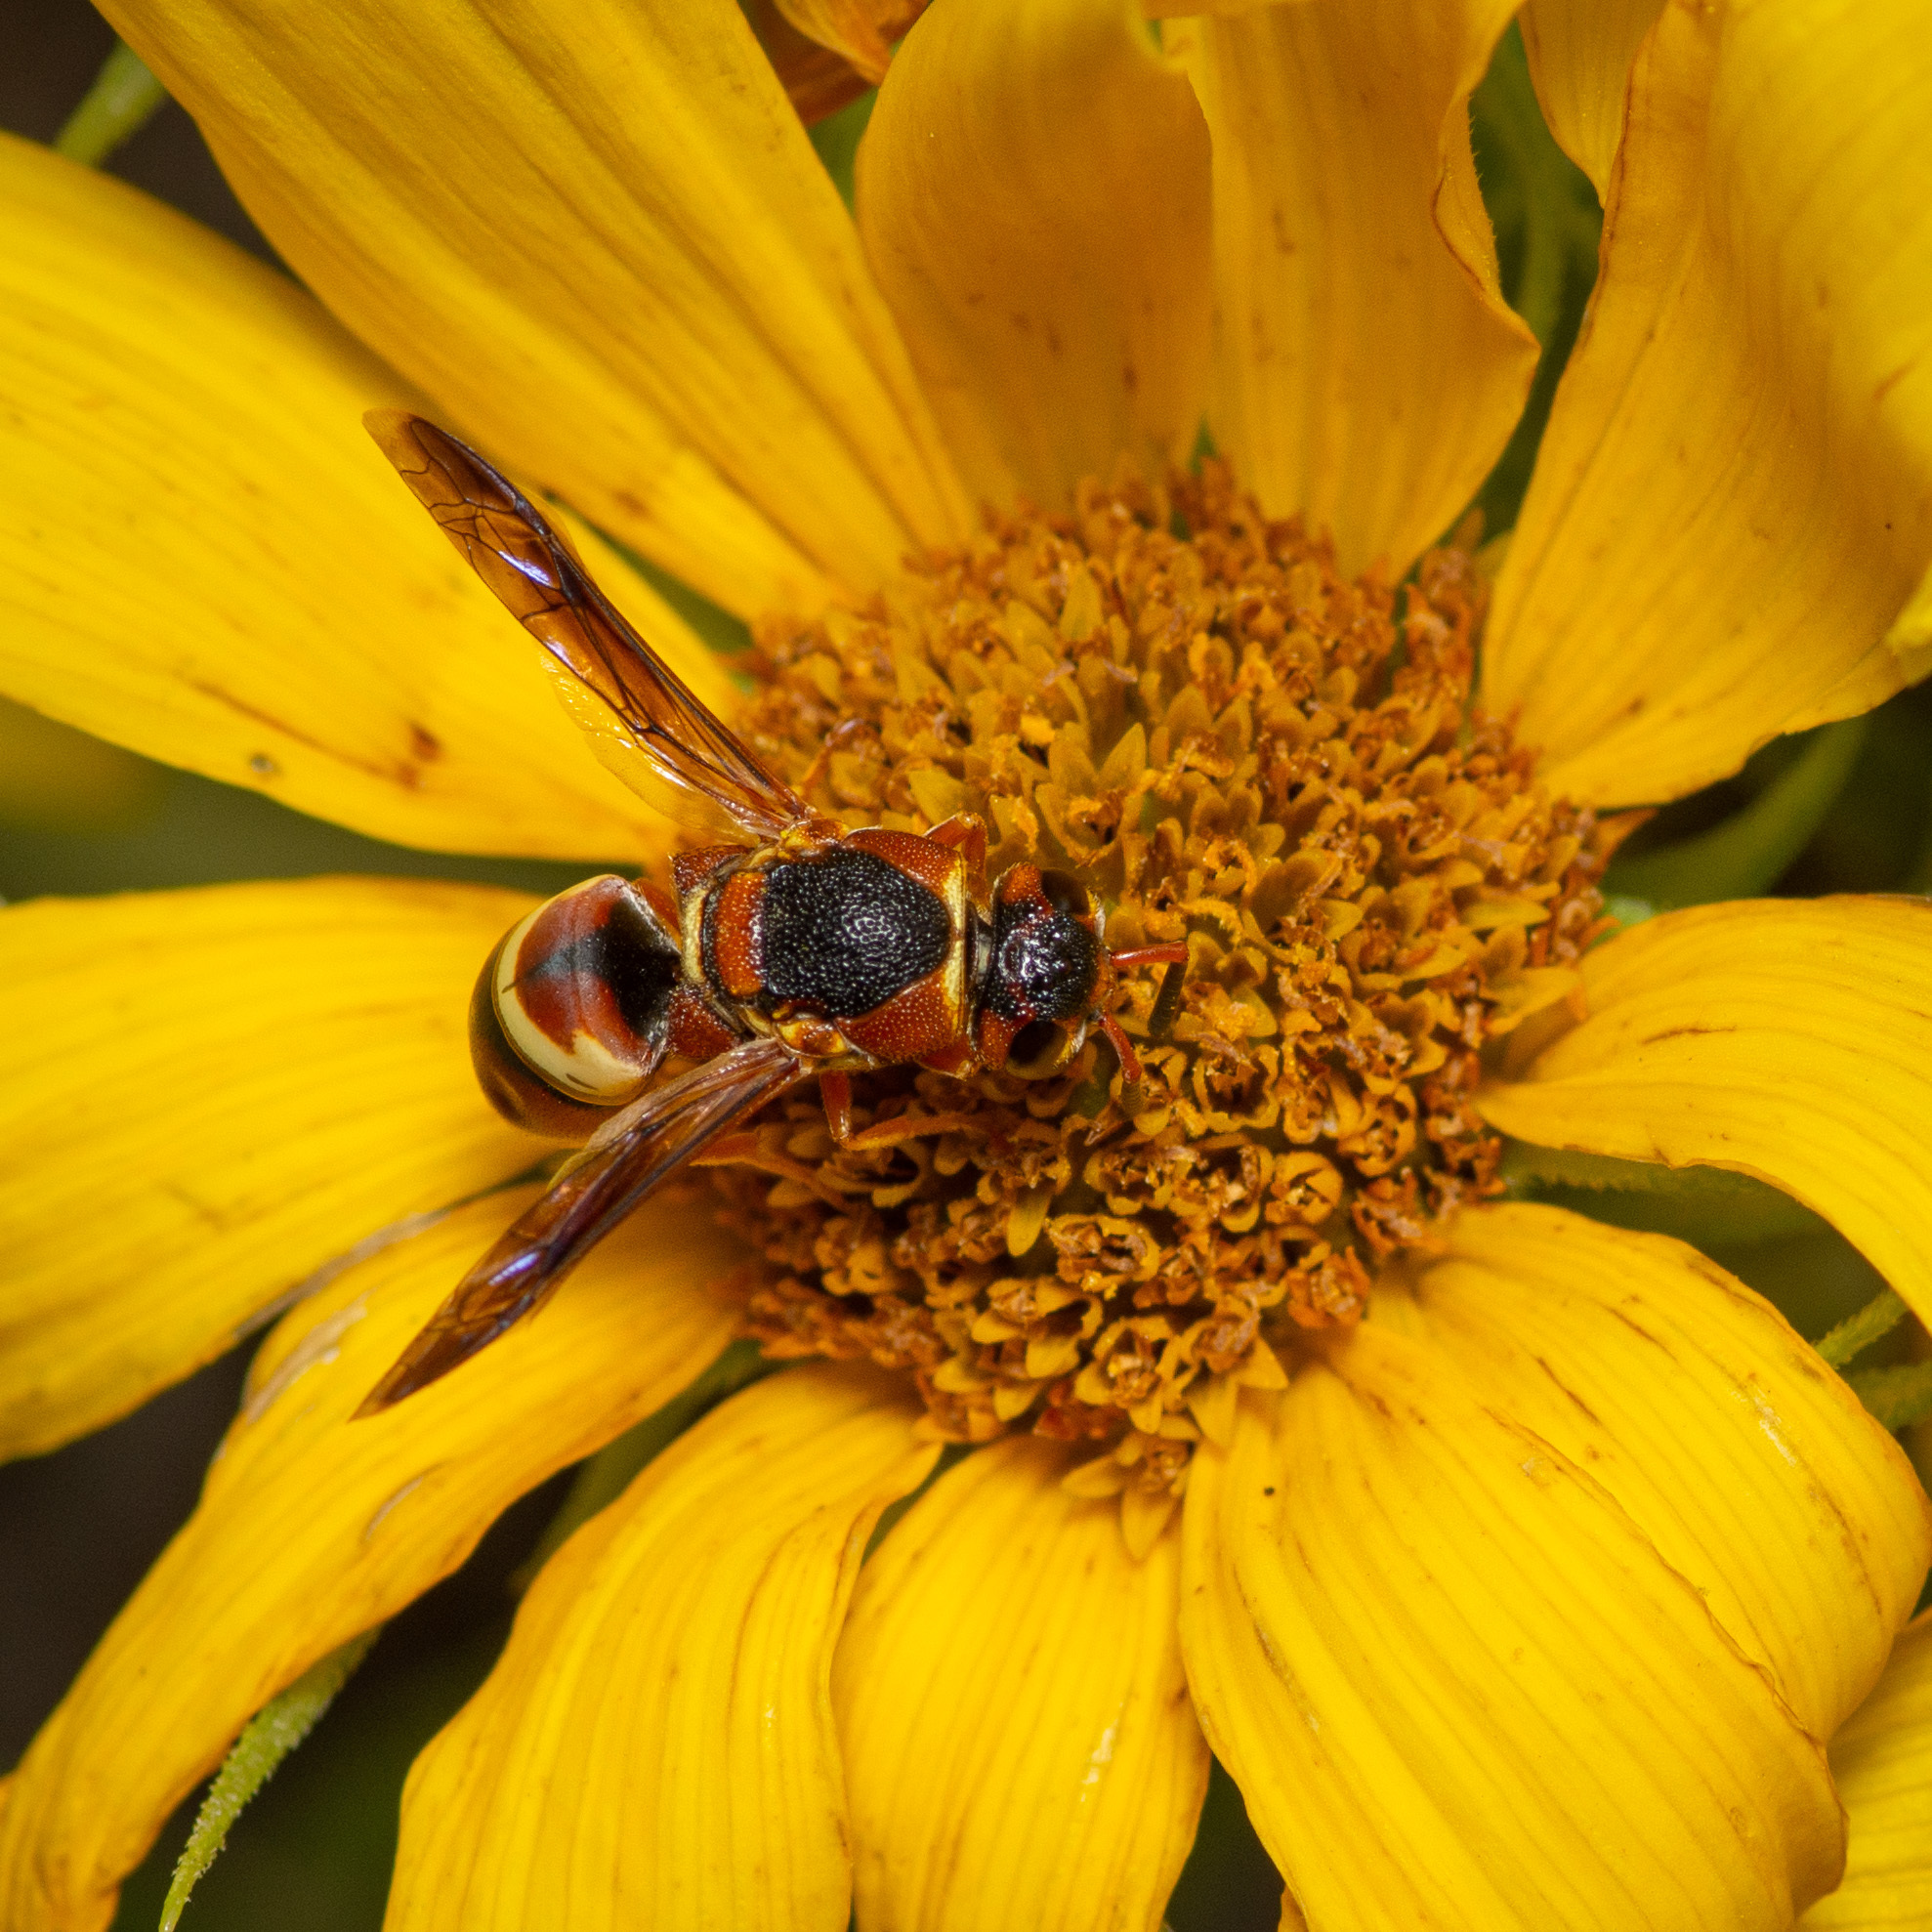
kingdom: Animalia
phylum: Arthropoda
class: Insecta
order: Hymenoptera
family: Eumenidae
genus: Euodynerus
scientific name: Euodynerus hidalgo
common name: Wasp
